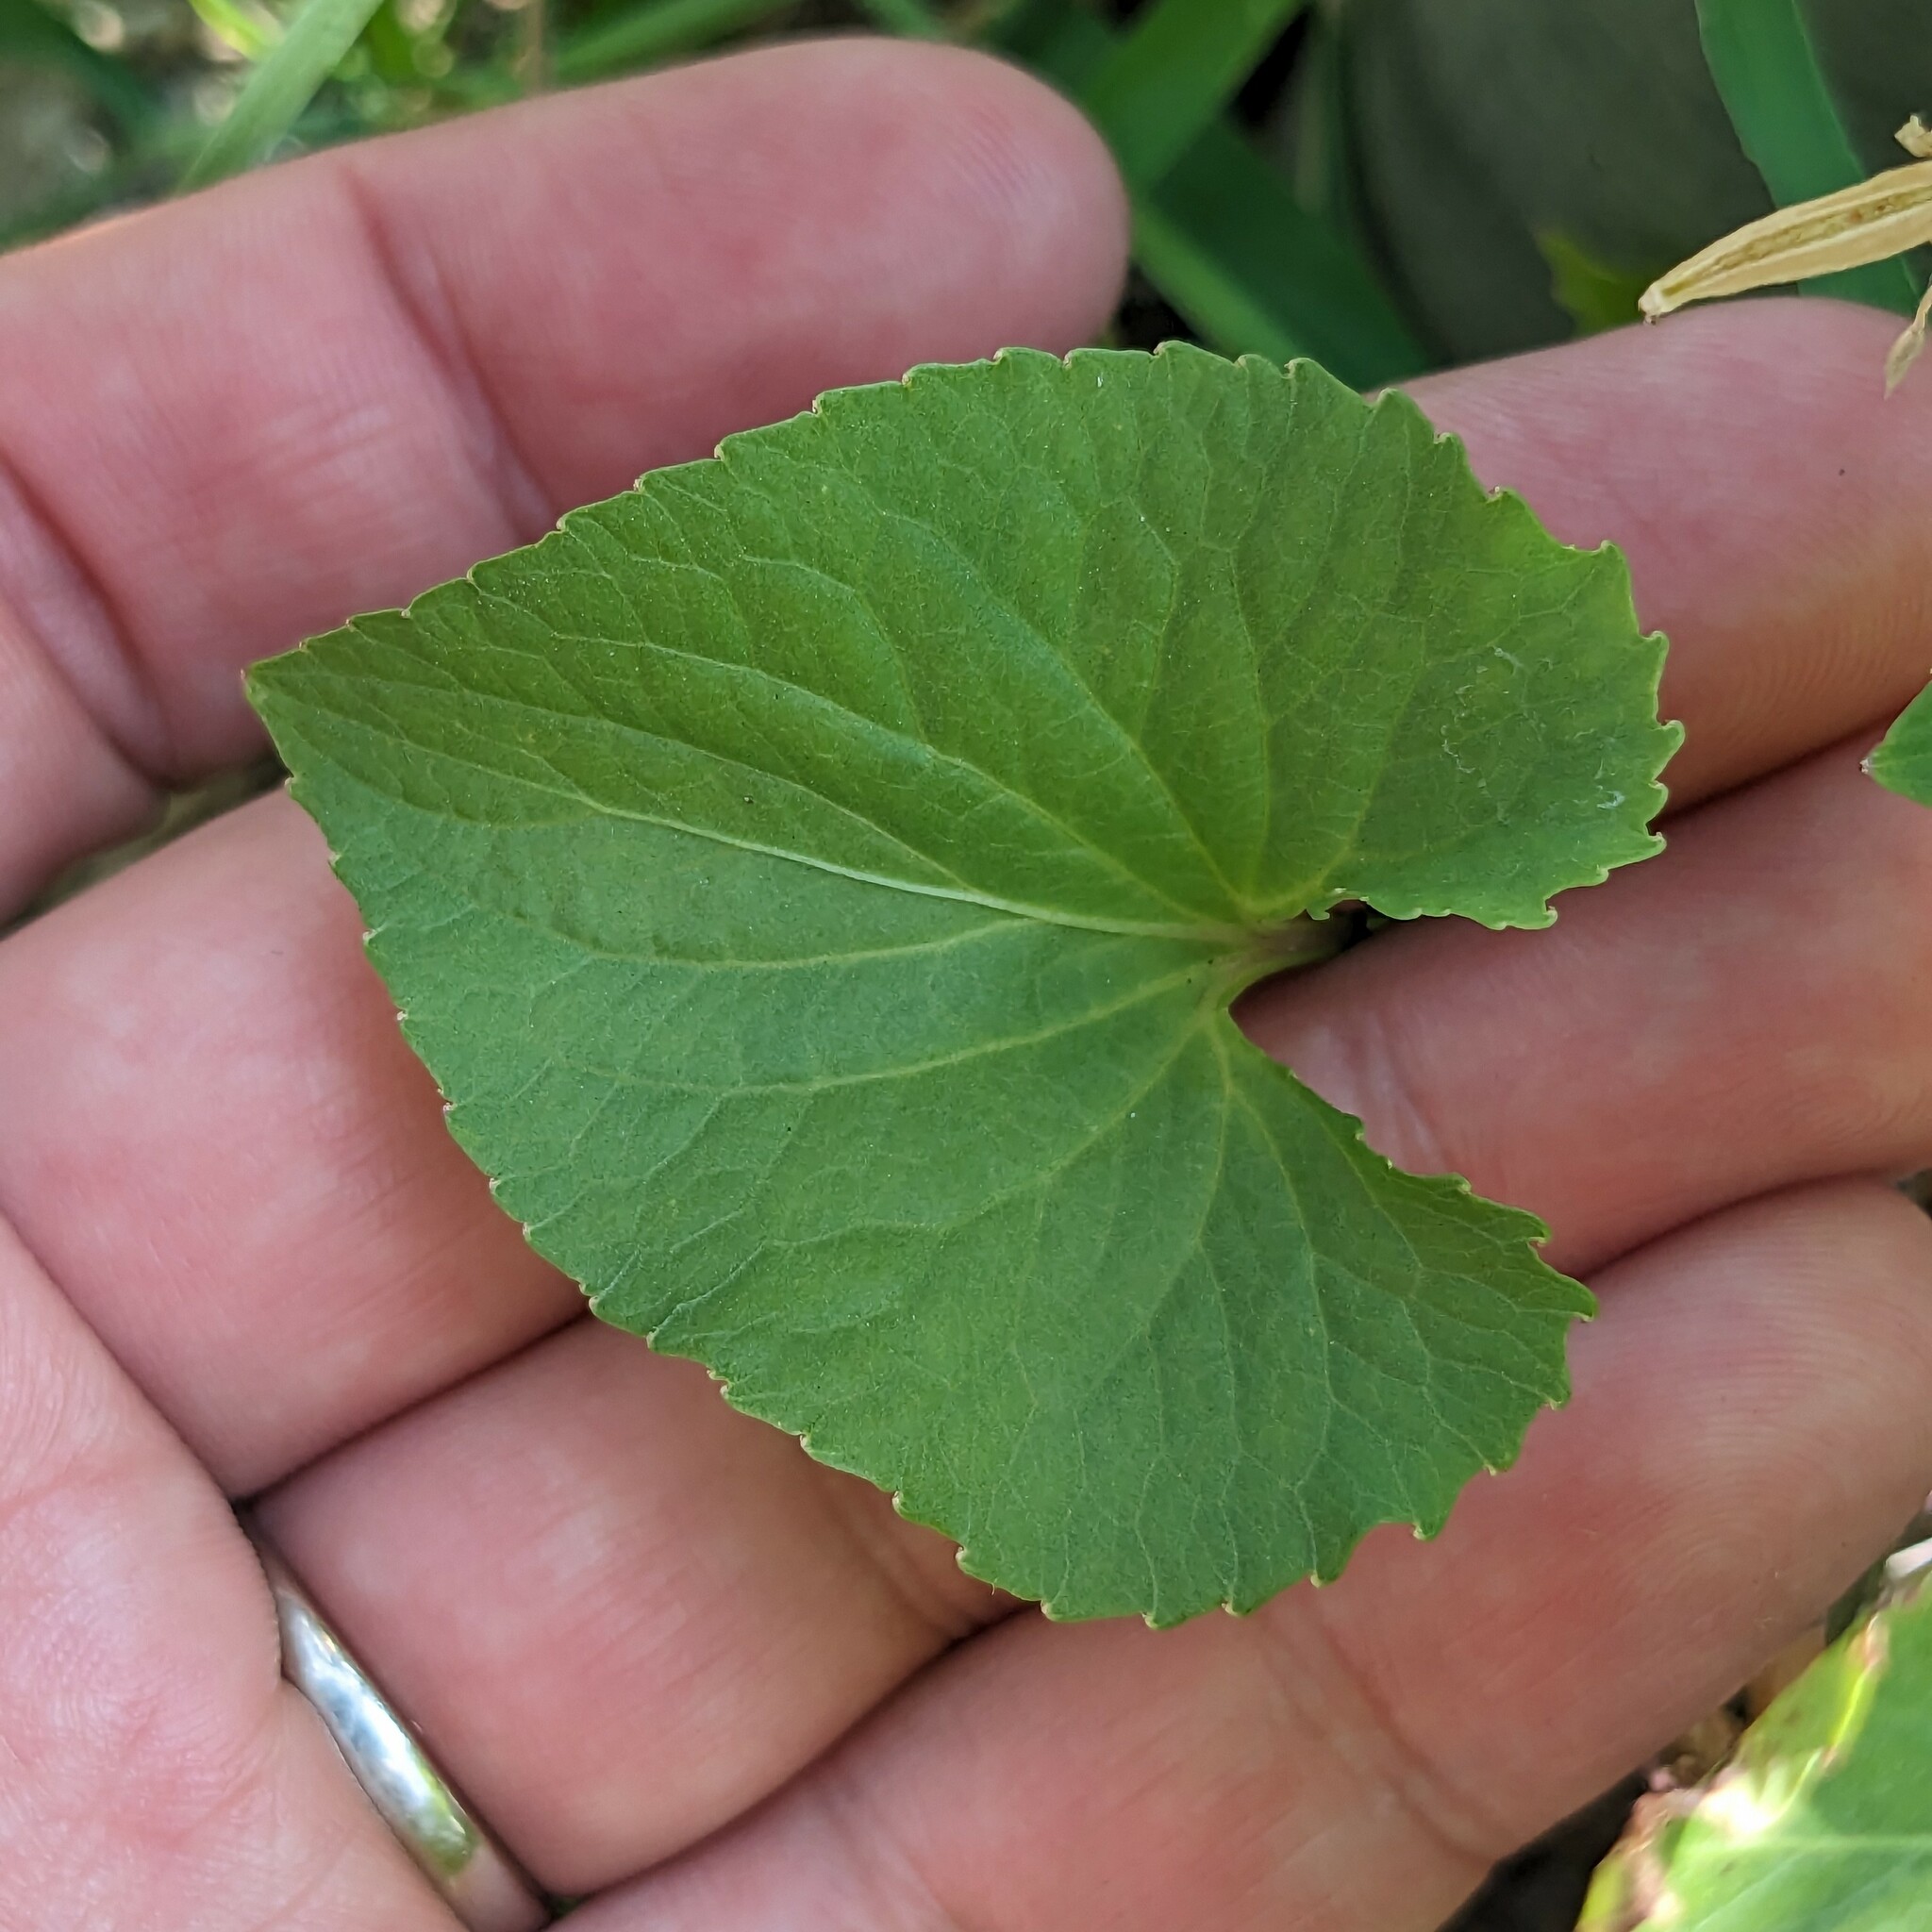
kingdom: Plantae
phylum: Tracheophyta
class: Magnoliopsida
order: Malpighiales
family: Violaceae
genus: Viola
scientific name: Viola sororia
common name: Dooryard violet
